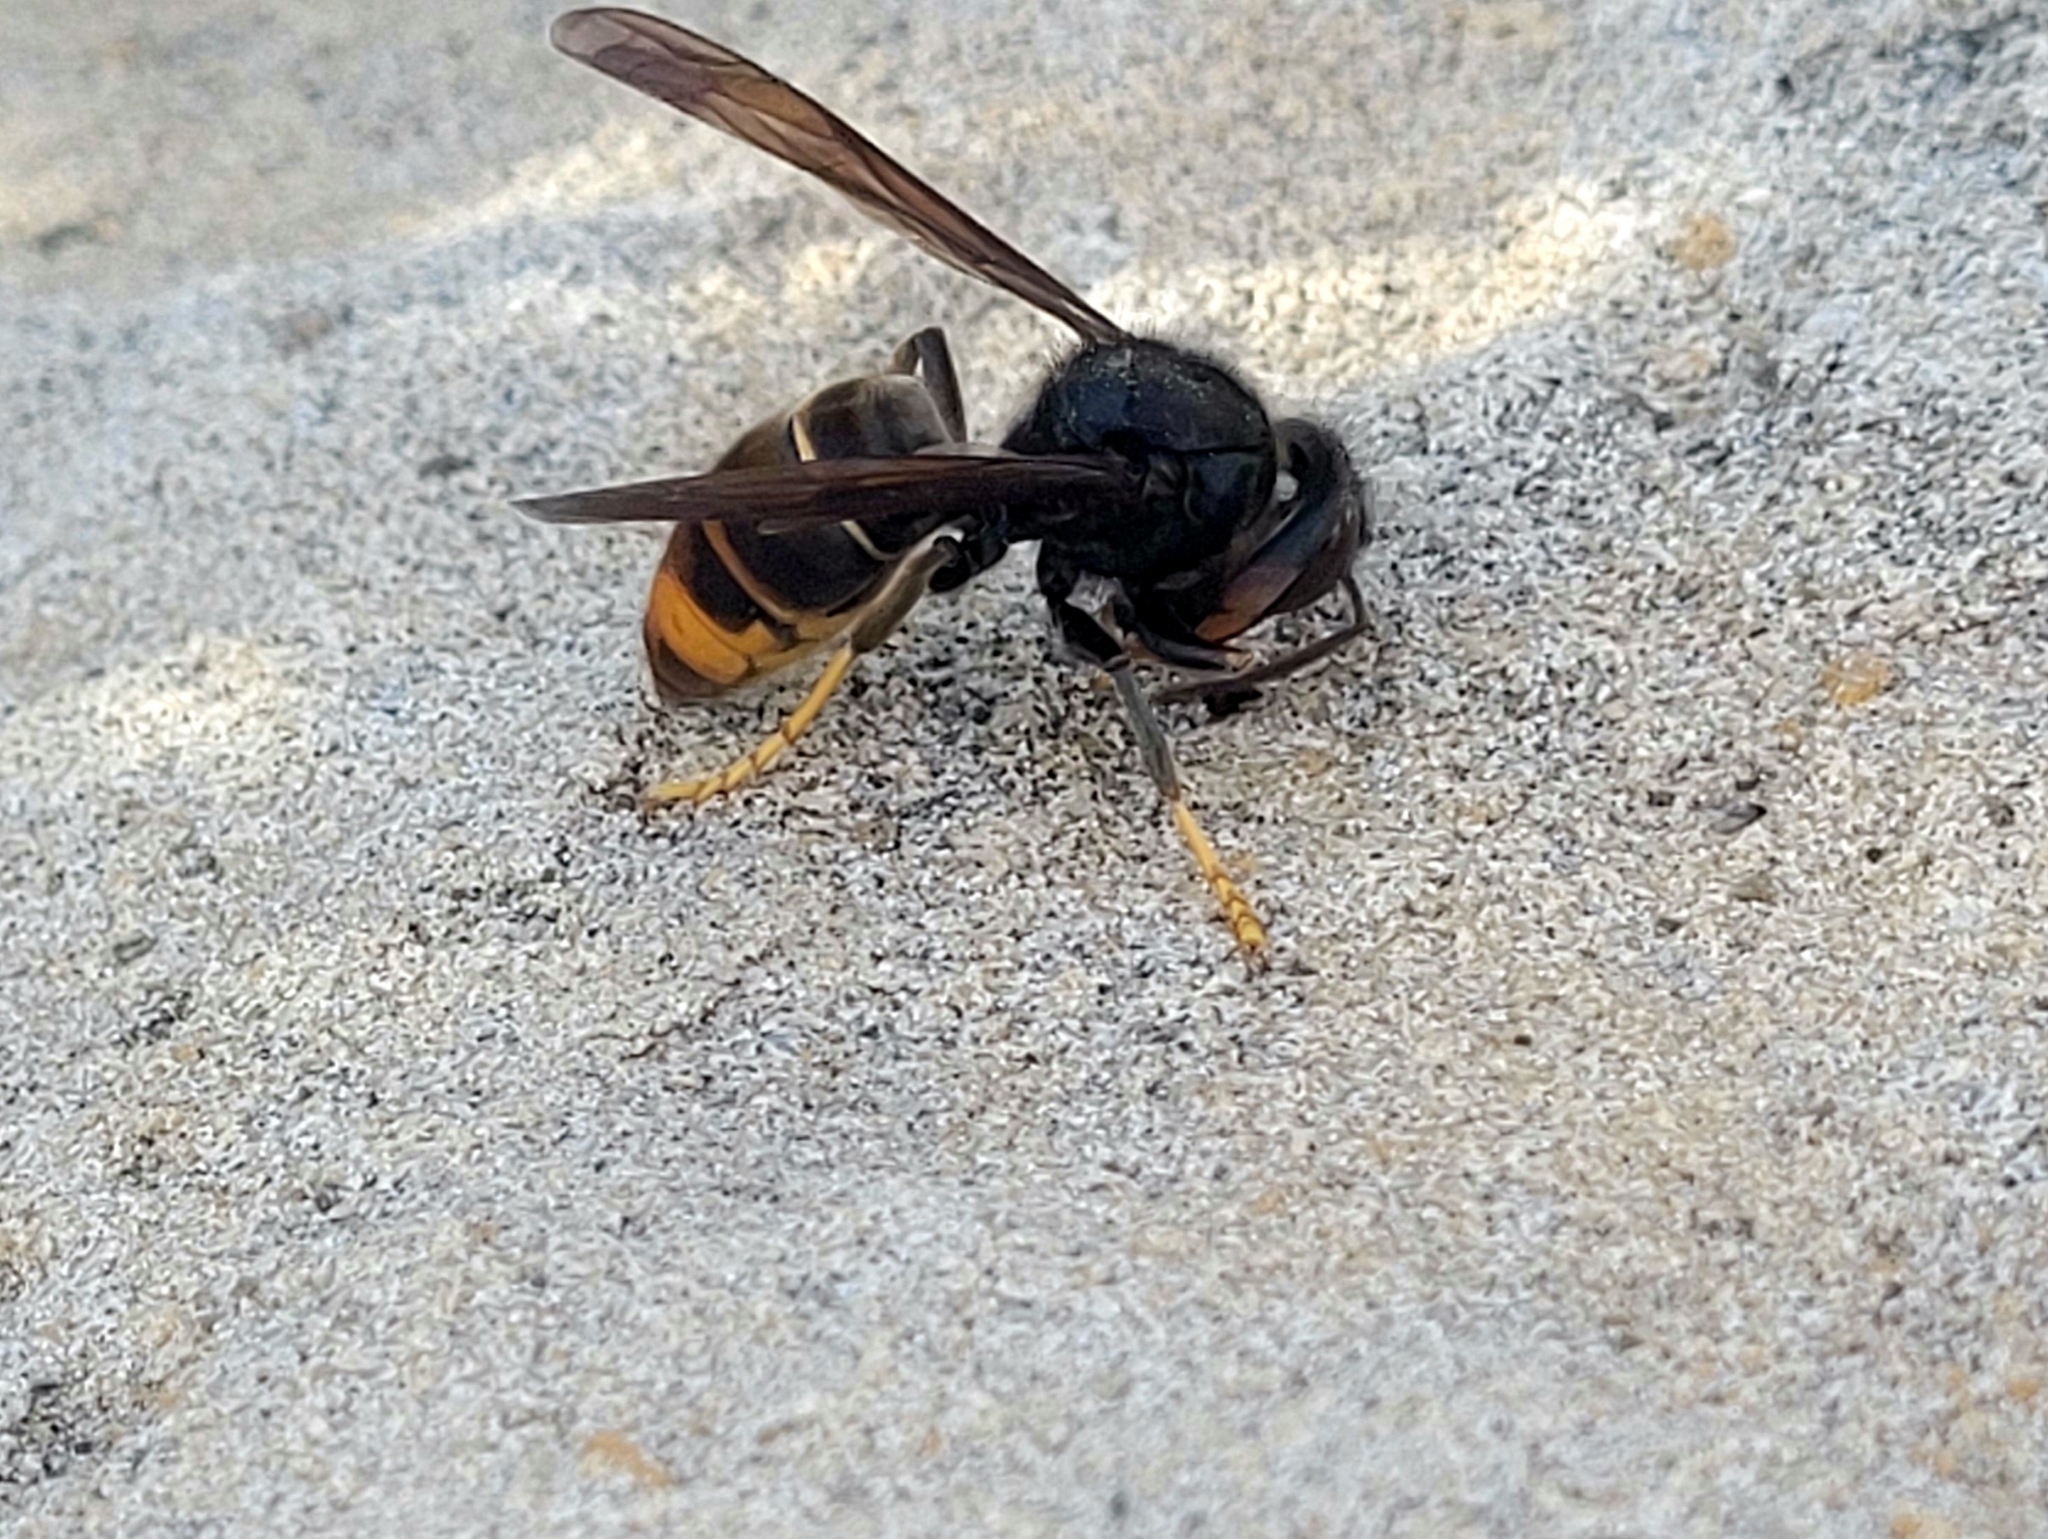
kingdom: Animalia
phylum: Arthropoda
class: Insecta
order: Hymenoptera
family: Vespidae
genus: Vespa
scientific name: Vespa velutina
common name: Asian hornet
